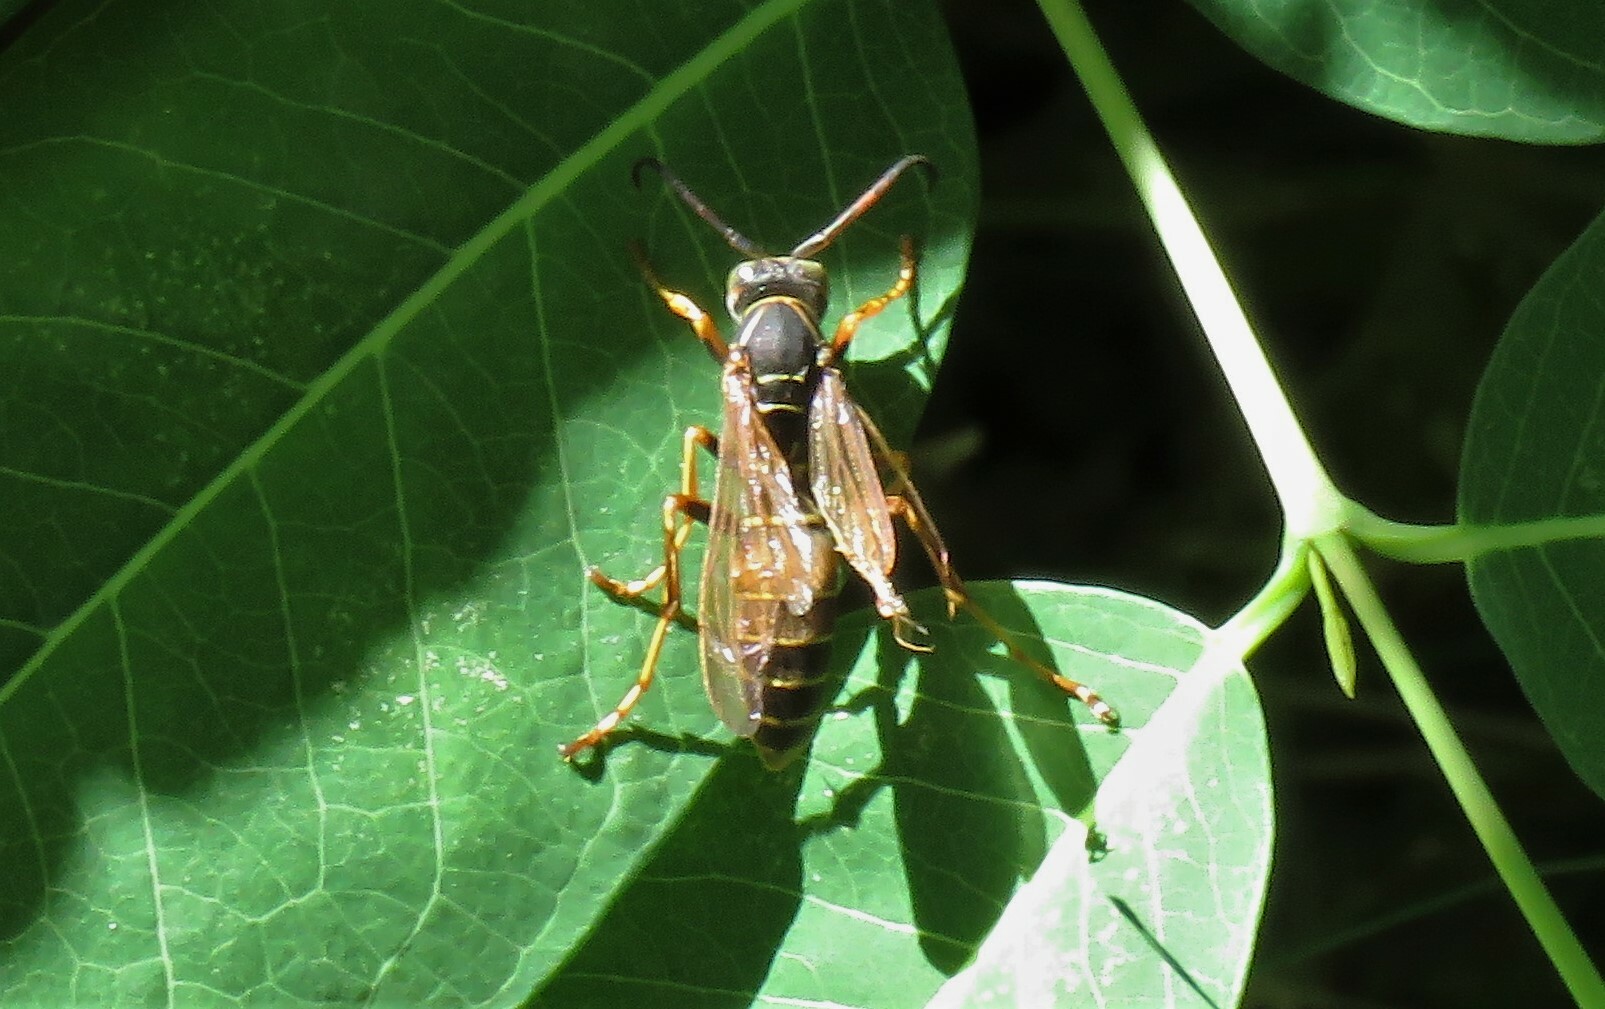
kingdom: Animalia
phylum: Arthropoda
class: Insecta
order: Hymenoptera
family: Eumenidae
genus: Polistes
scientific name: Polistes fuscatus
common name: Dark paper wasp
